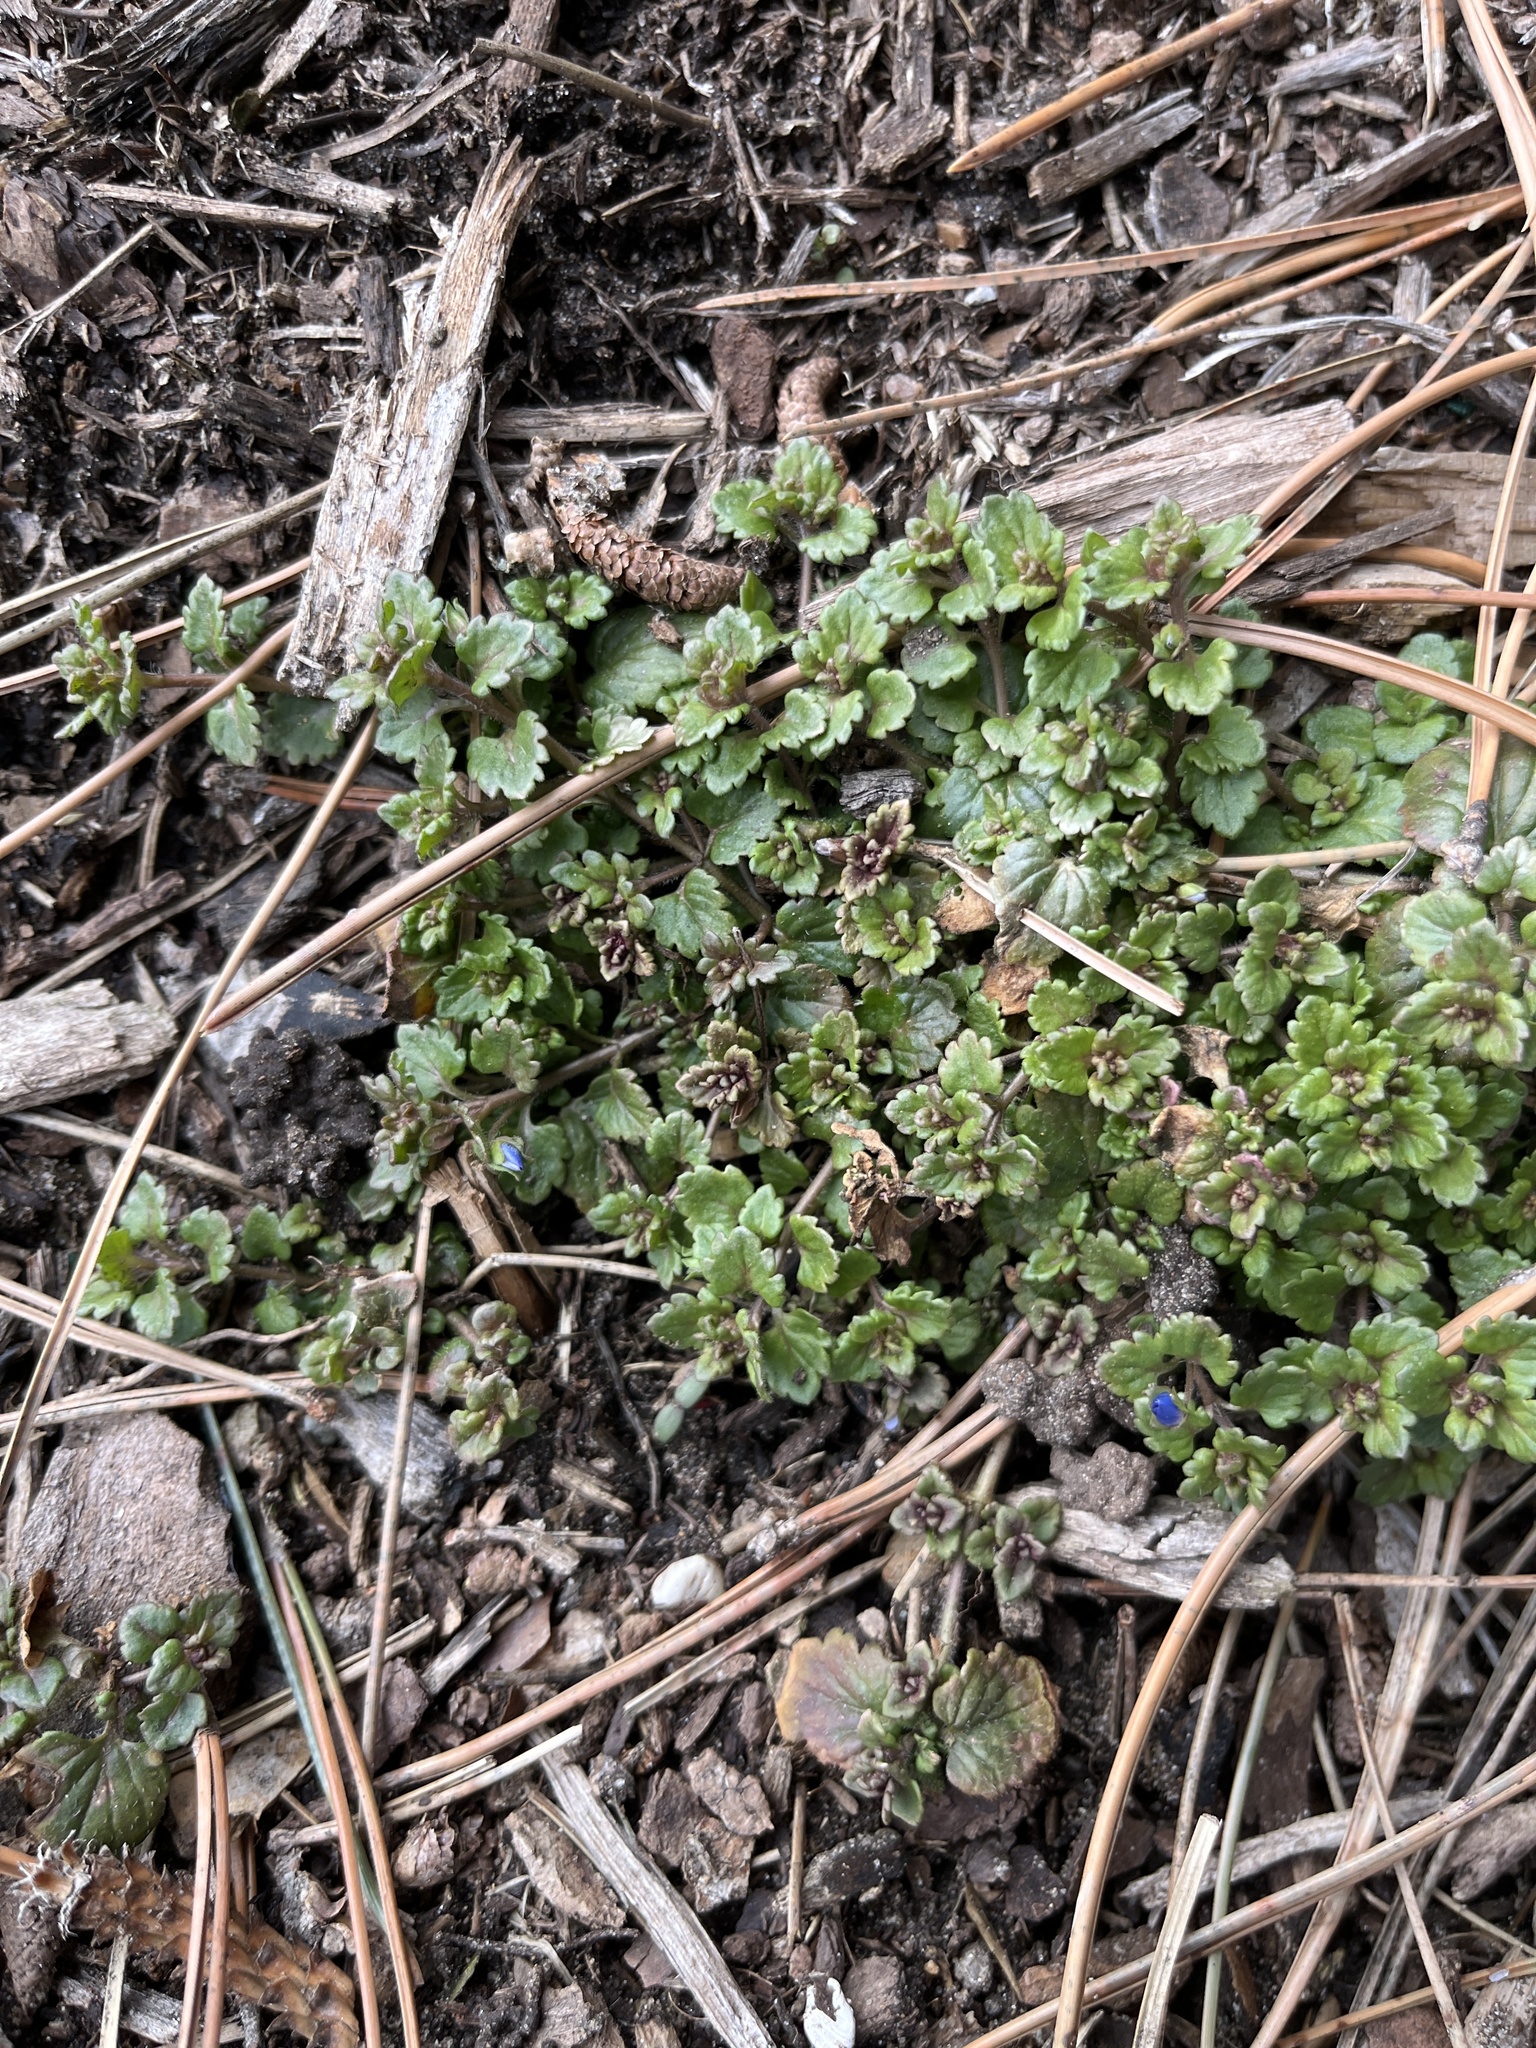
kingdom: Plantae
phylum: Tracheophyta
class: Magnoliopsida
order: Lamiales
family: Plantaginaceae
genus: Veronica
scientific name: Veronica polita
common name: Grey field-speedwell
